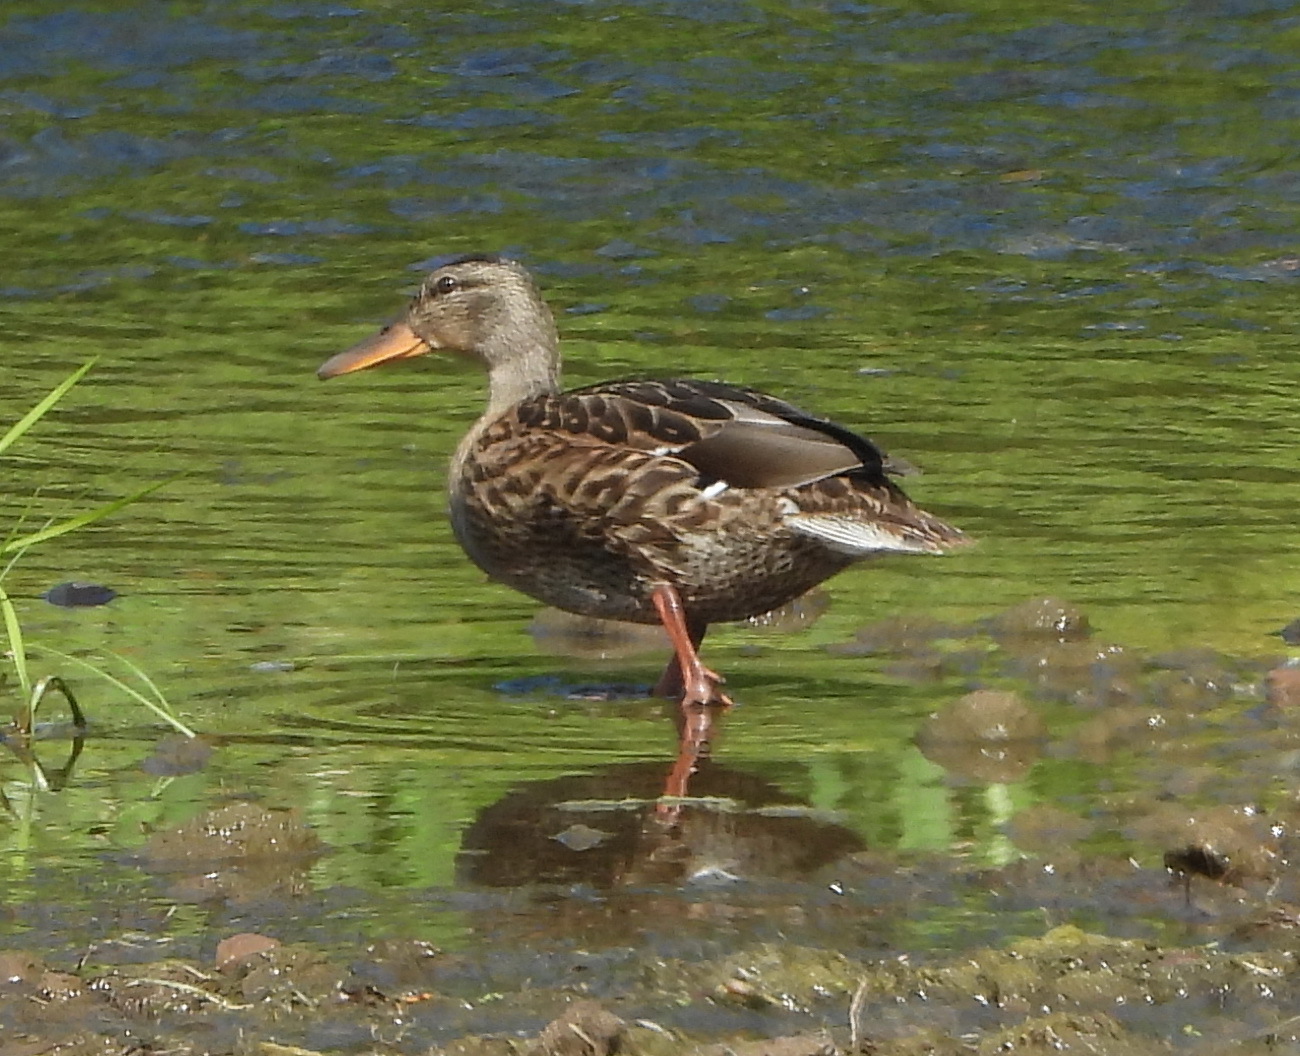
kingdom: Animalia
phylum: Chordata
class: Aves
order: Anseriformes
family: Anatidae
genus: Anas
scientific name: Anas platyrhynchos
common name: Mallard
